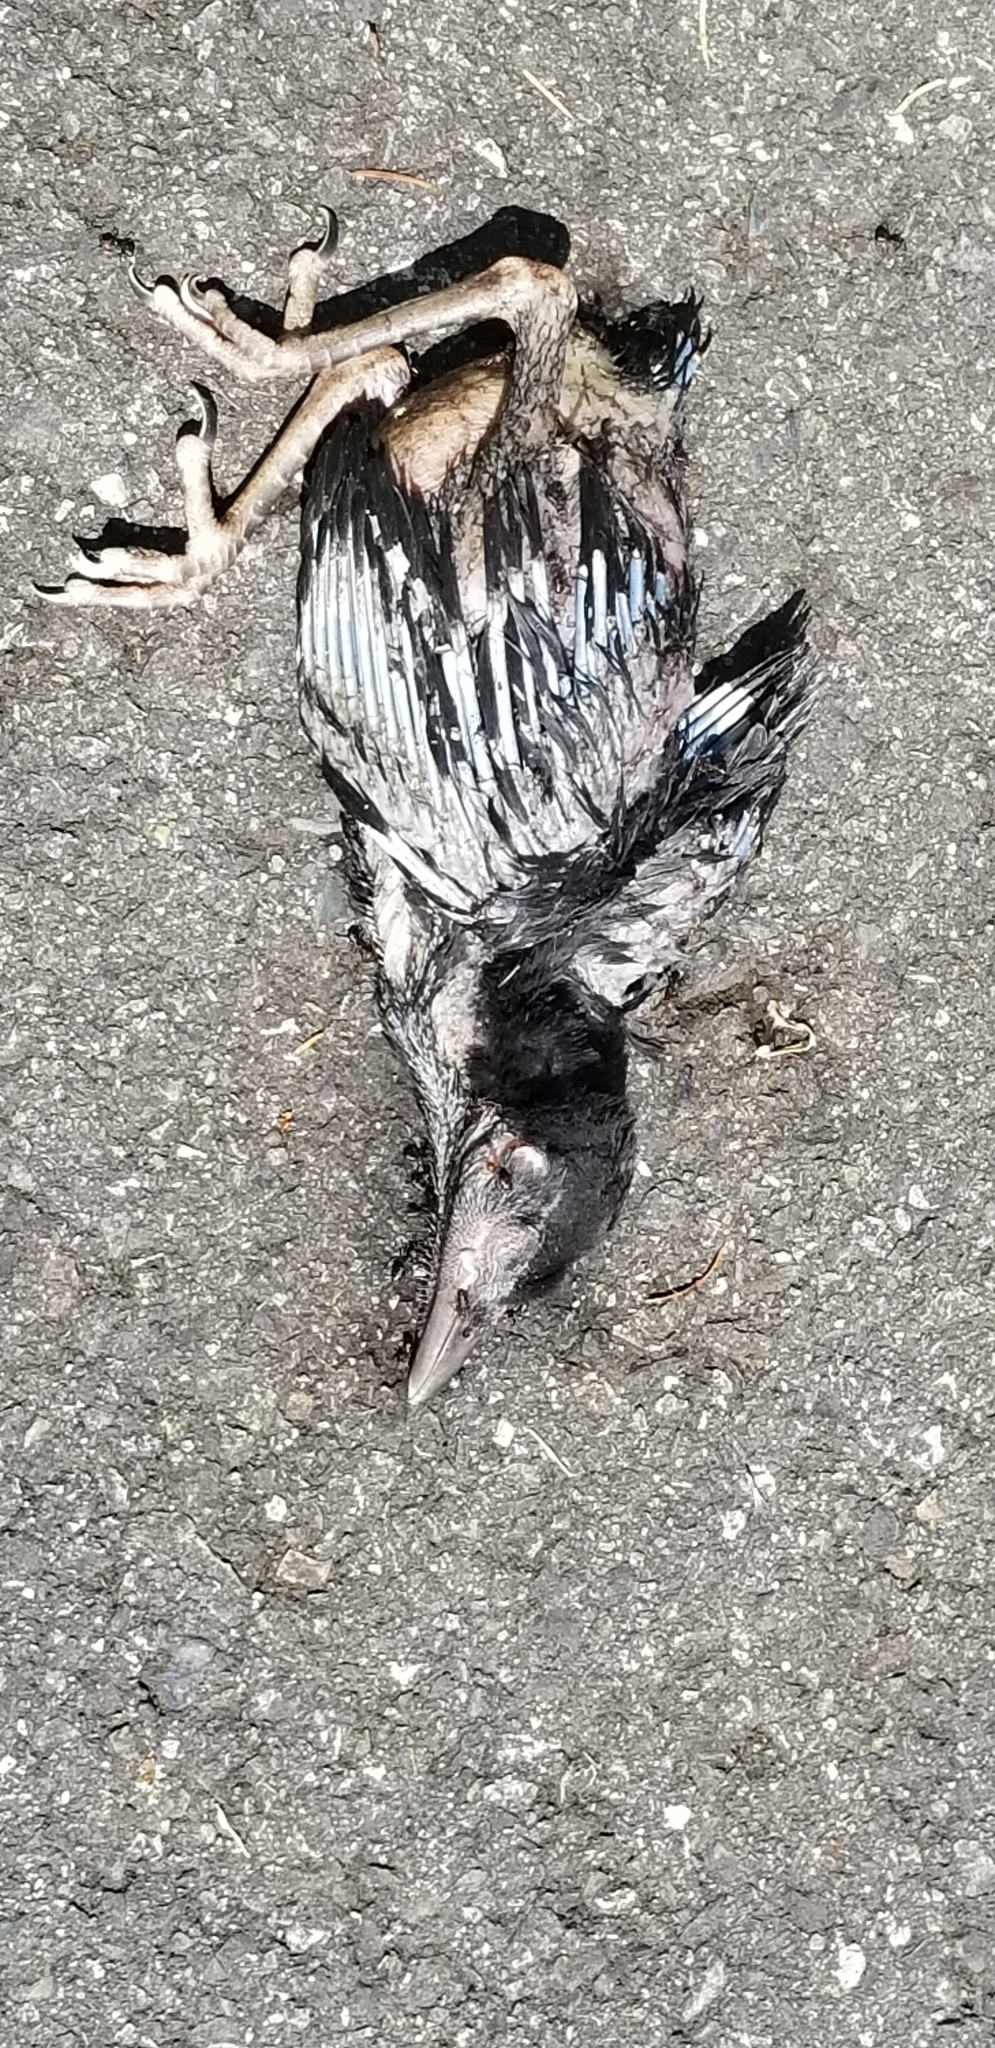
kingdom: Animalia
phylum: Chordata
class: Aves
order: Passeriformes
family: Sturnidae
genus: Sturnus
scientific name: Sturnus vulgaris
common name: Common starling
